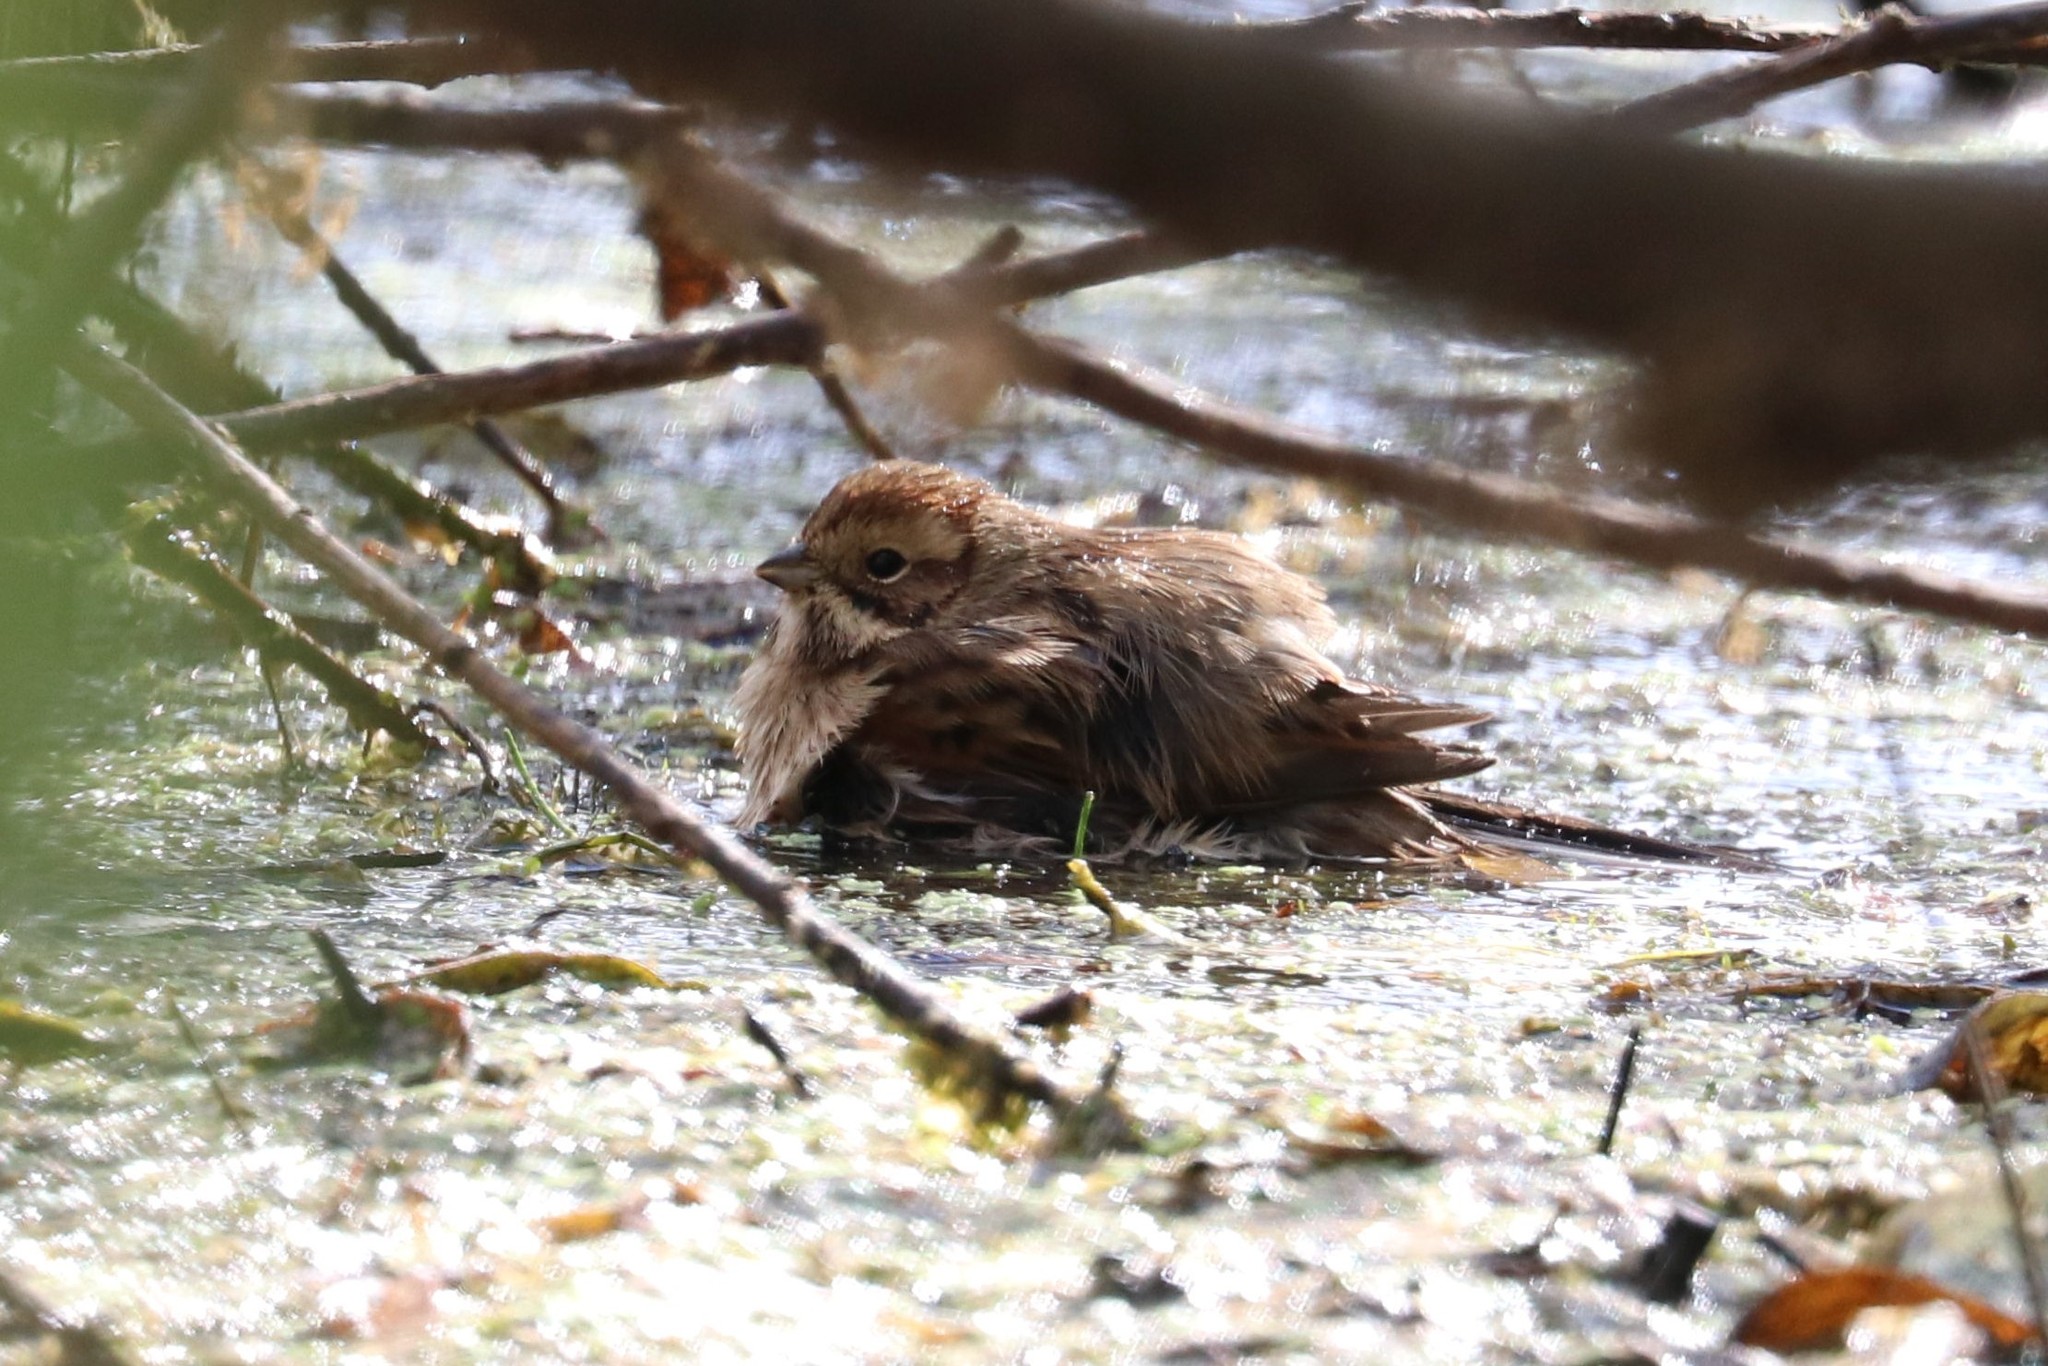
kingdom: Animalia
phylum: Chordata
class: Aves
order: Passeriformes
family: Emberizidae
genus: Emberiza
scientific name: Emberiza schoeniclus
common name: Reed bunting
